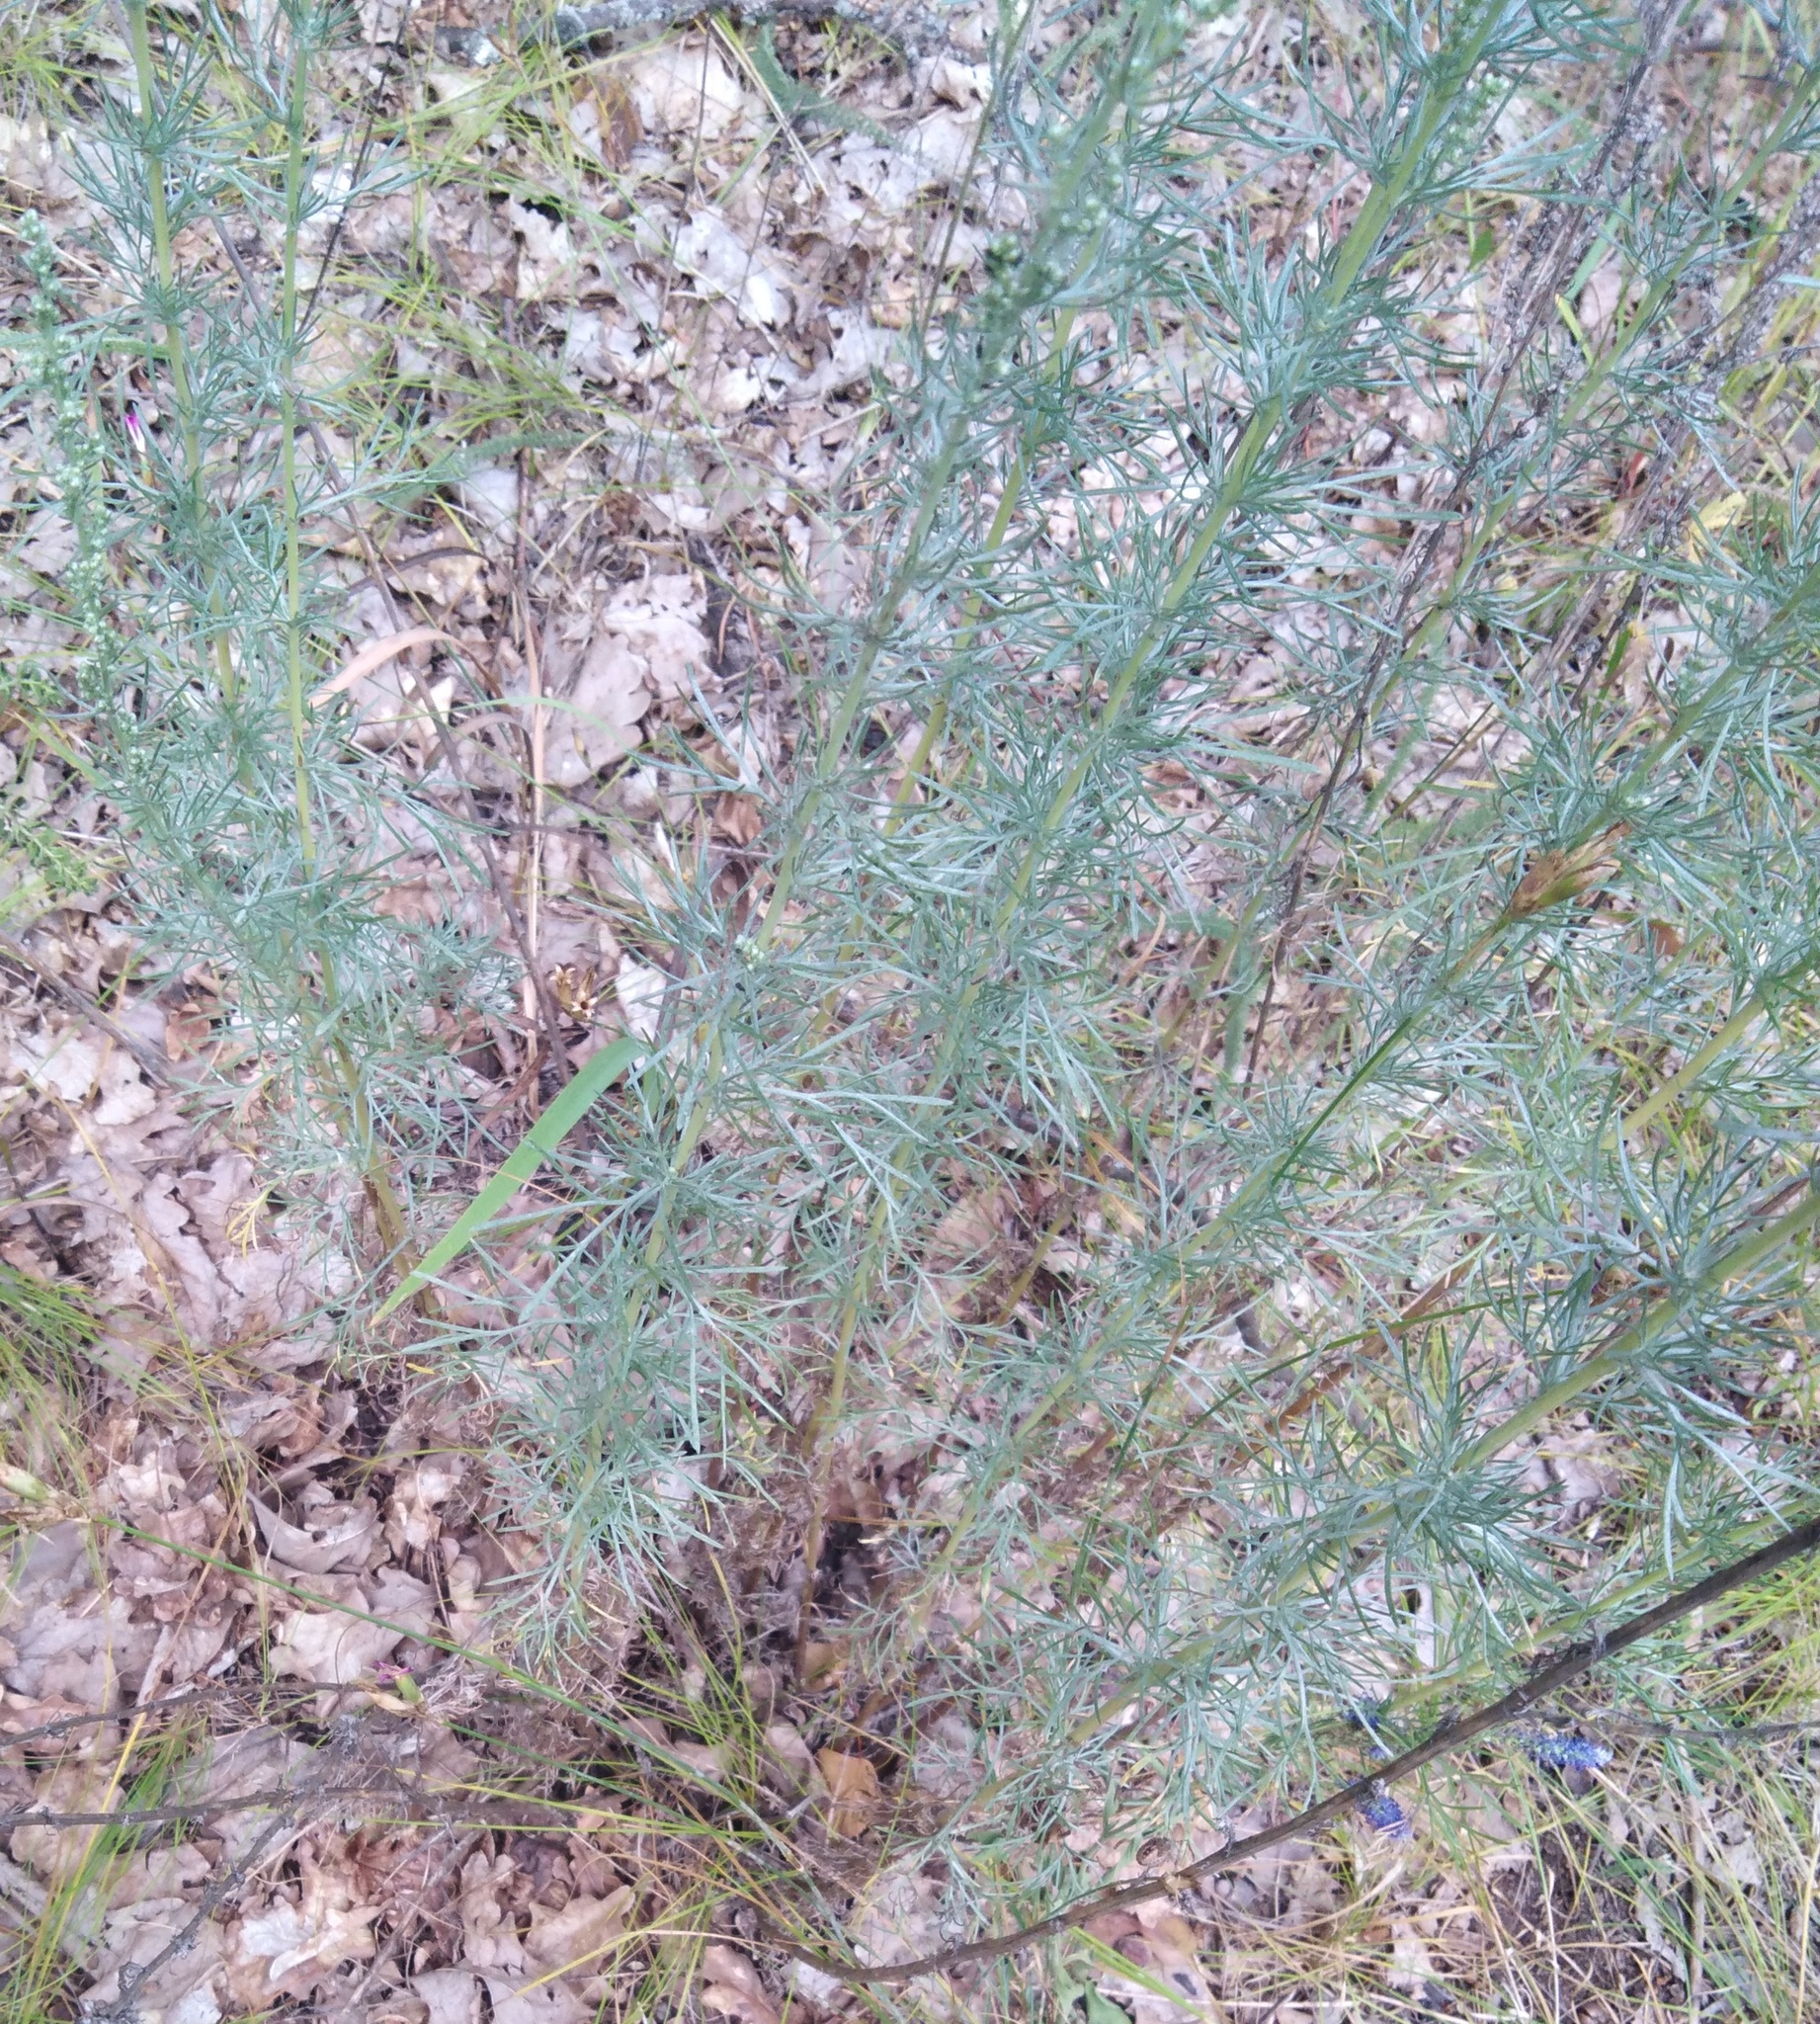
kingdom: Plantae
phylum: Tracheophyta
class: Magnoliopsida
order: Asterales
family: Asteraceae
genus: Artemisia
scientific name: Artemisia campestris
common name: Field wormwood
